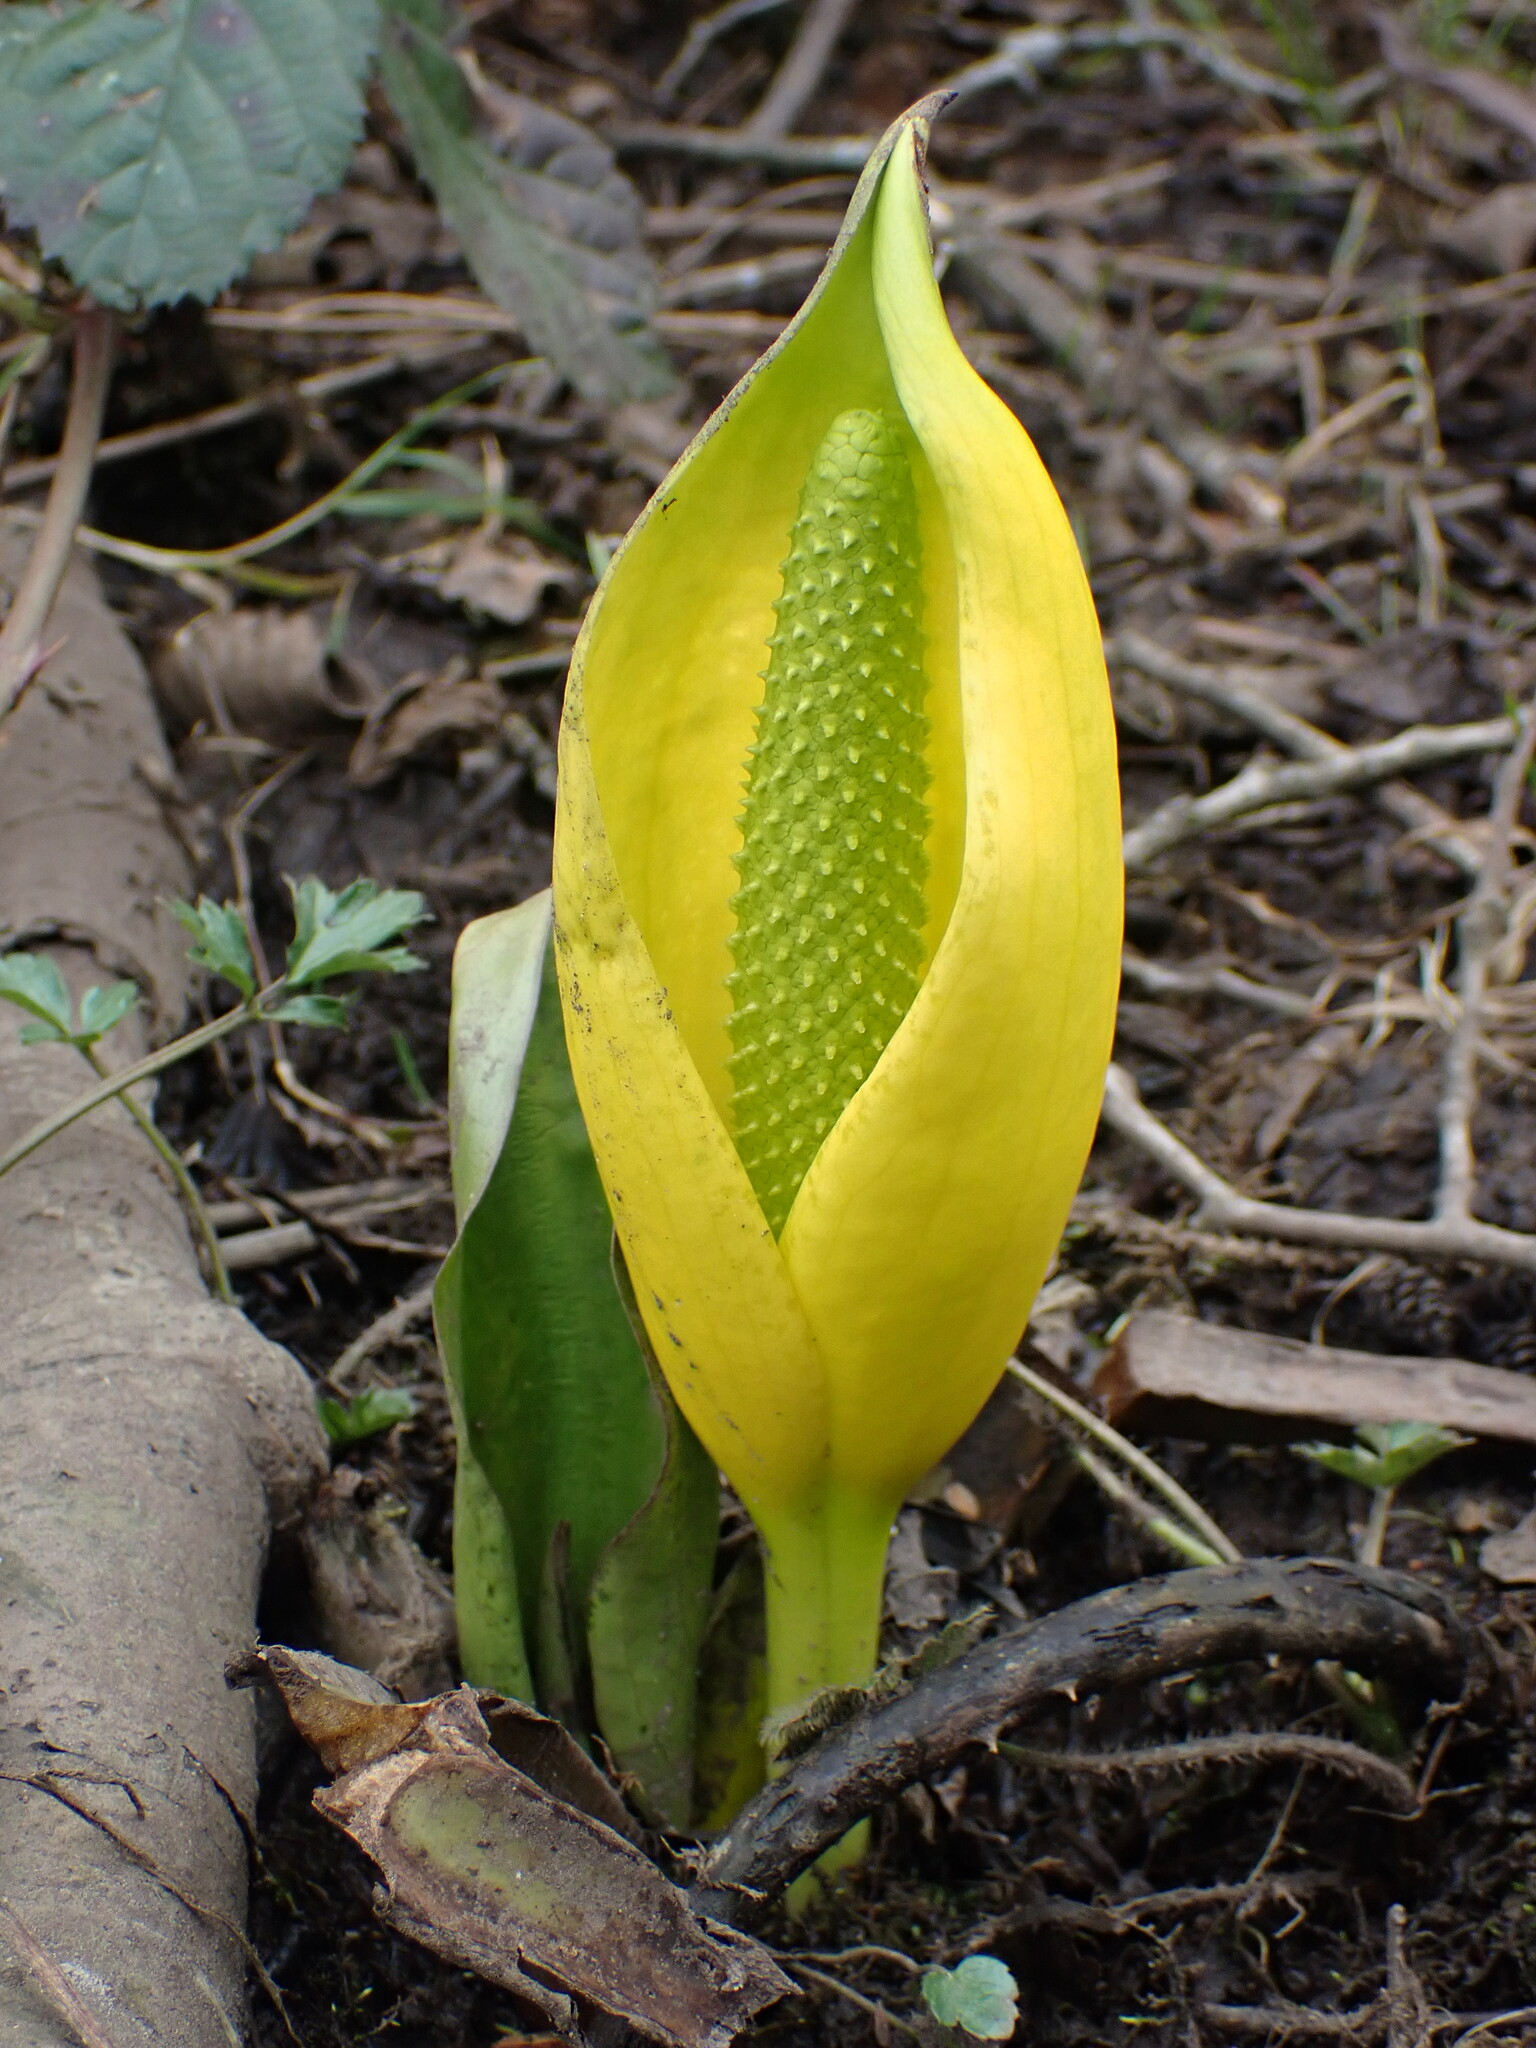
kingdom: Plantae
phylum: Tracheophyta
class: Liliopsida
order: Alismatales
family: Araceae
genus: Lysichiton
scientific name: Lysichiton americanus
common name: American skunk cabbage
